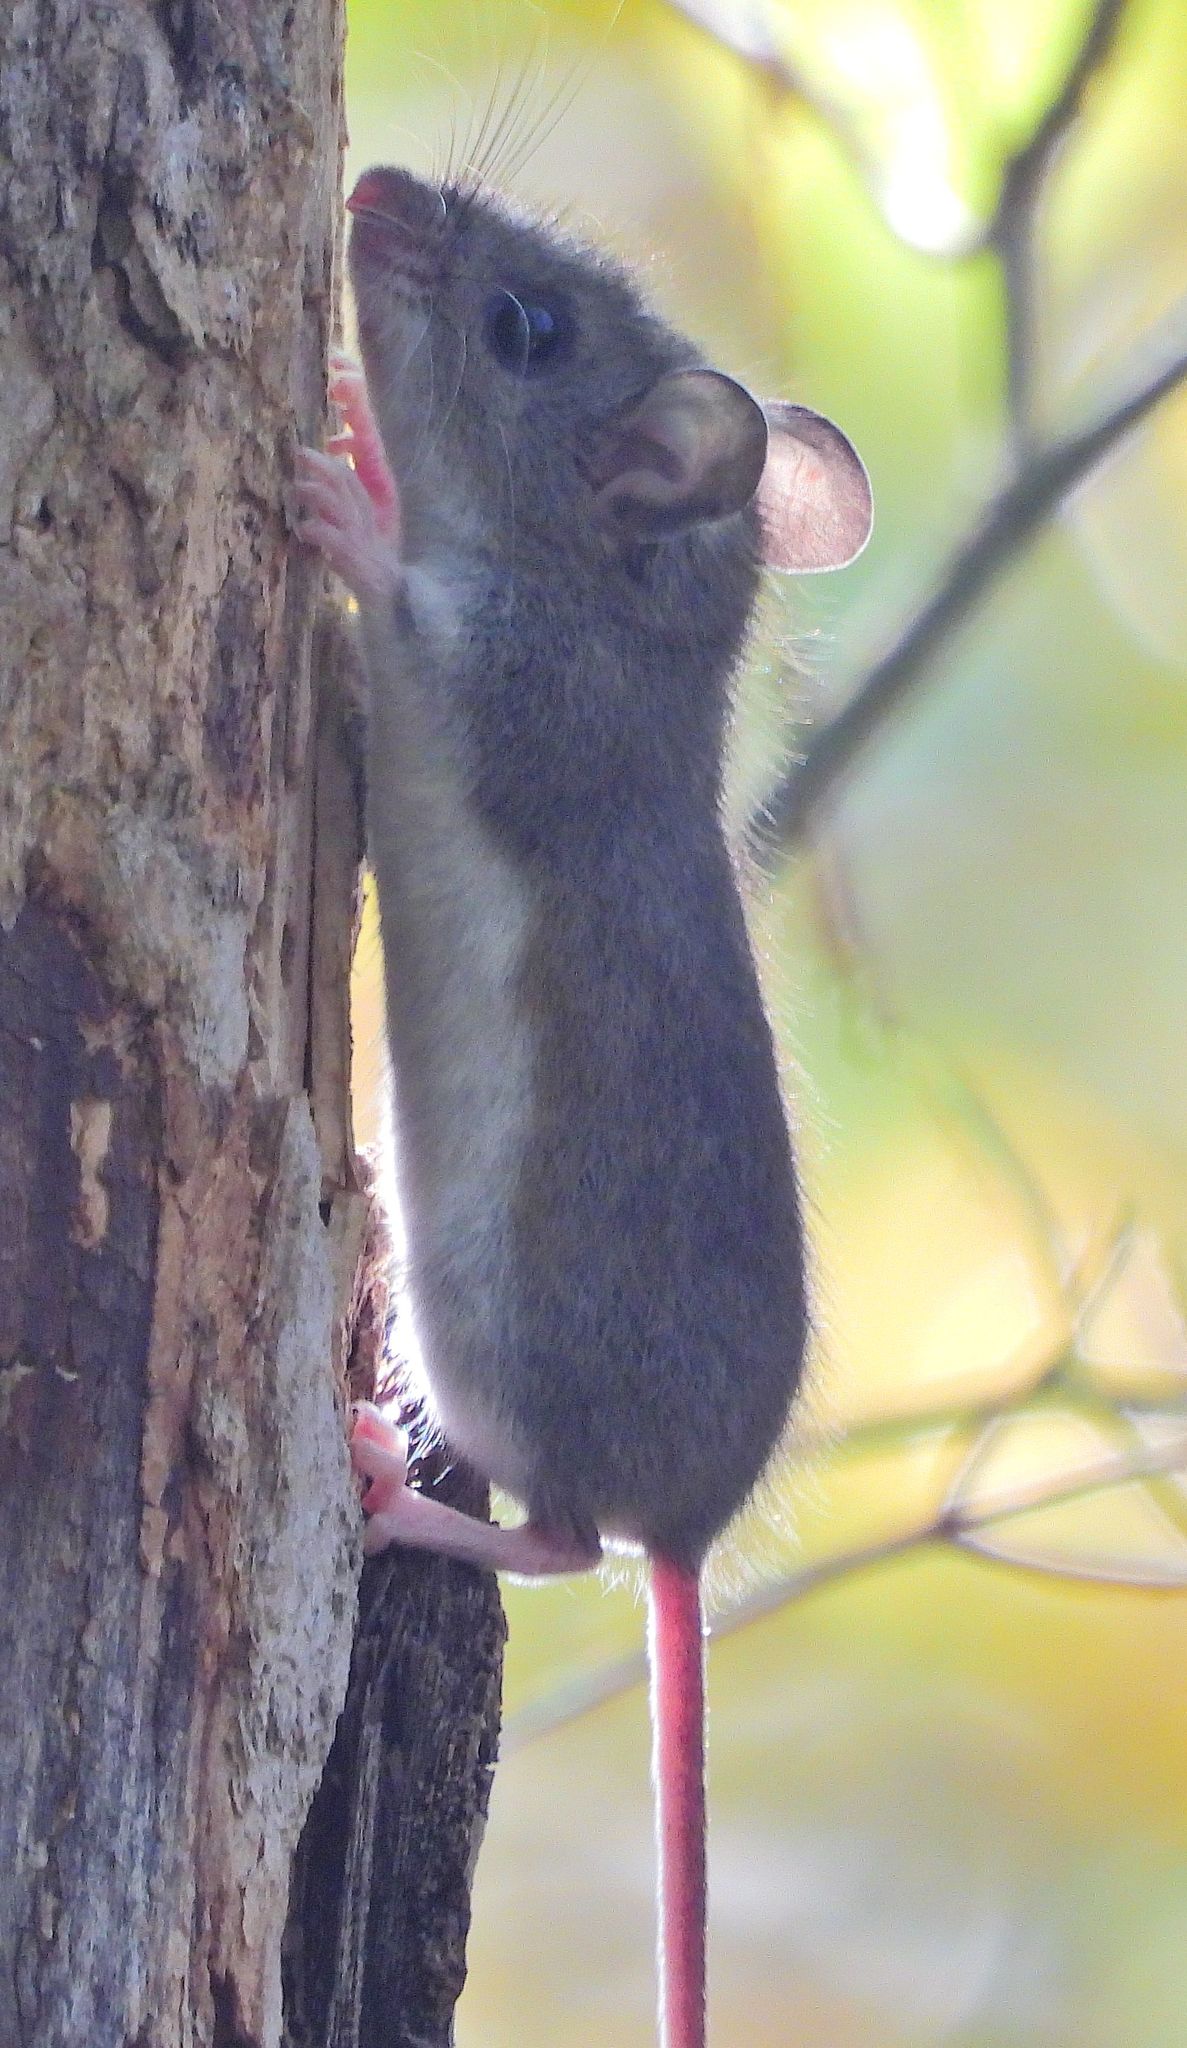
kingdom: Animalia
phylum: Chordata
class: Mammalia
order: Rodentia
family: Cricetidae
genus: Peromyscus
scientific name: Peromyscus
